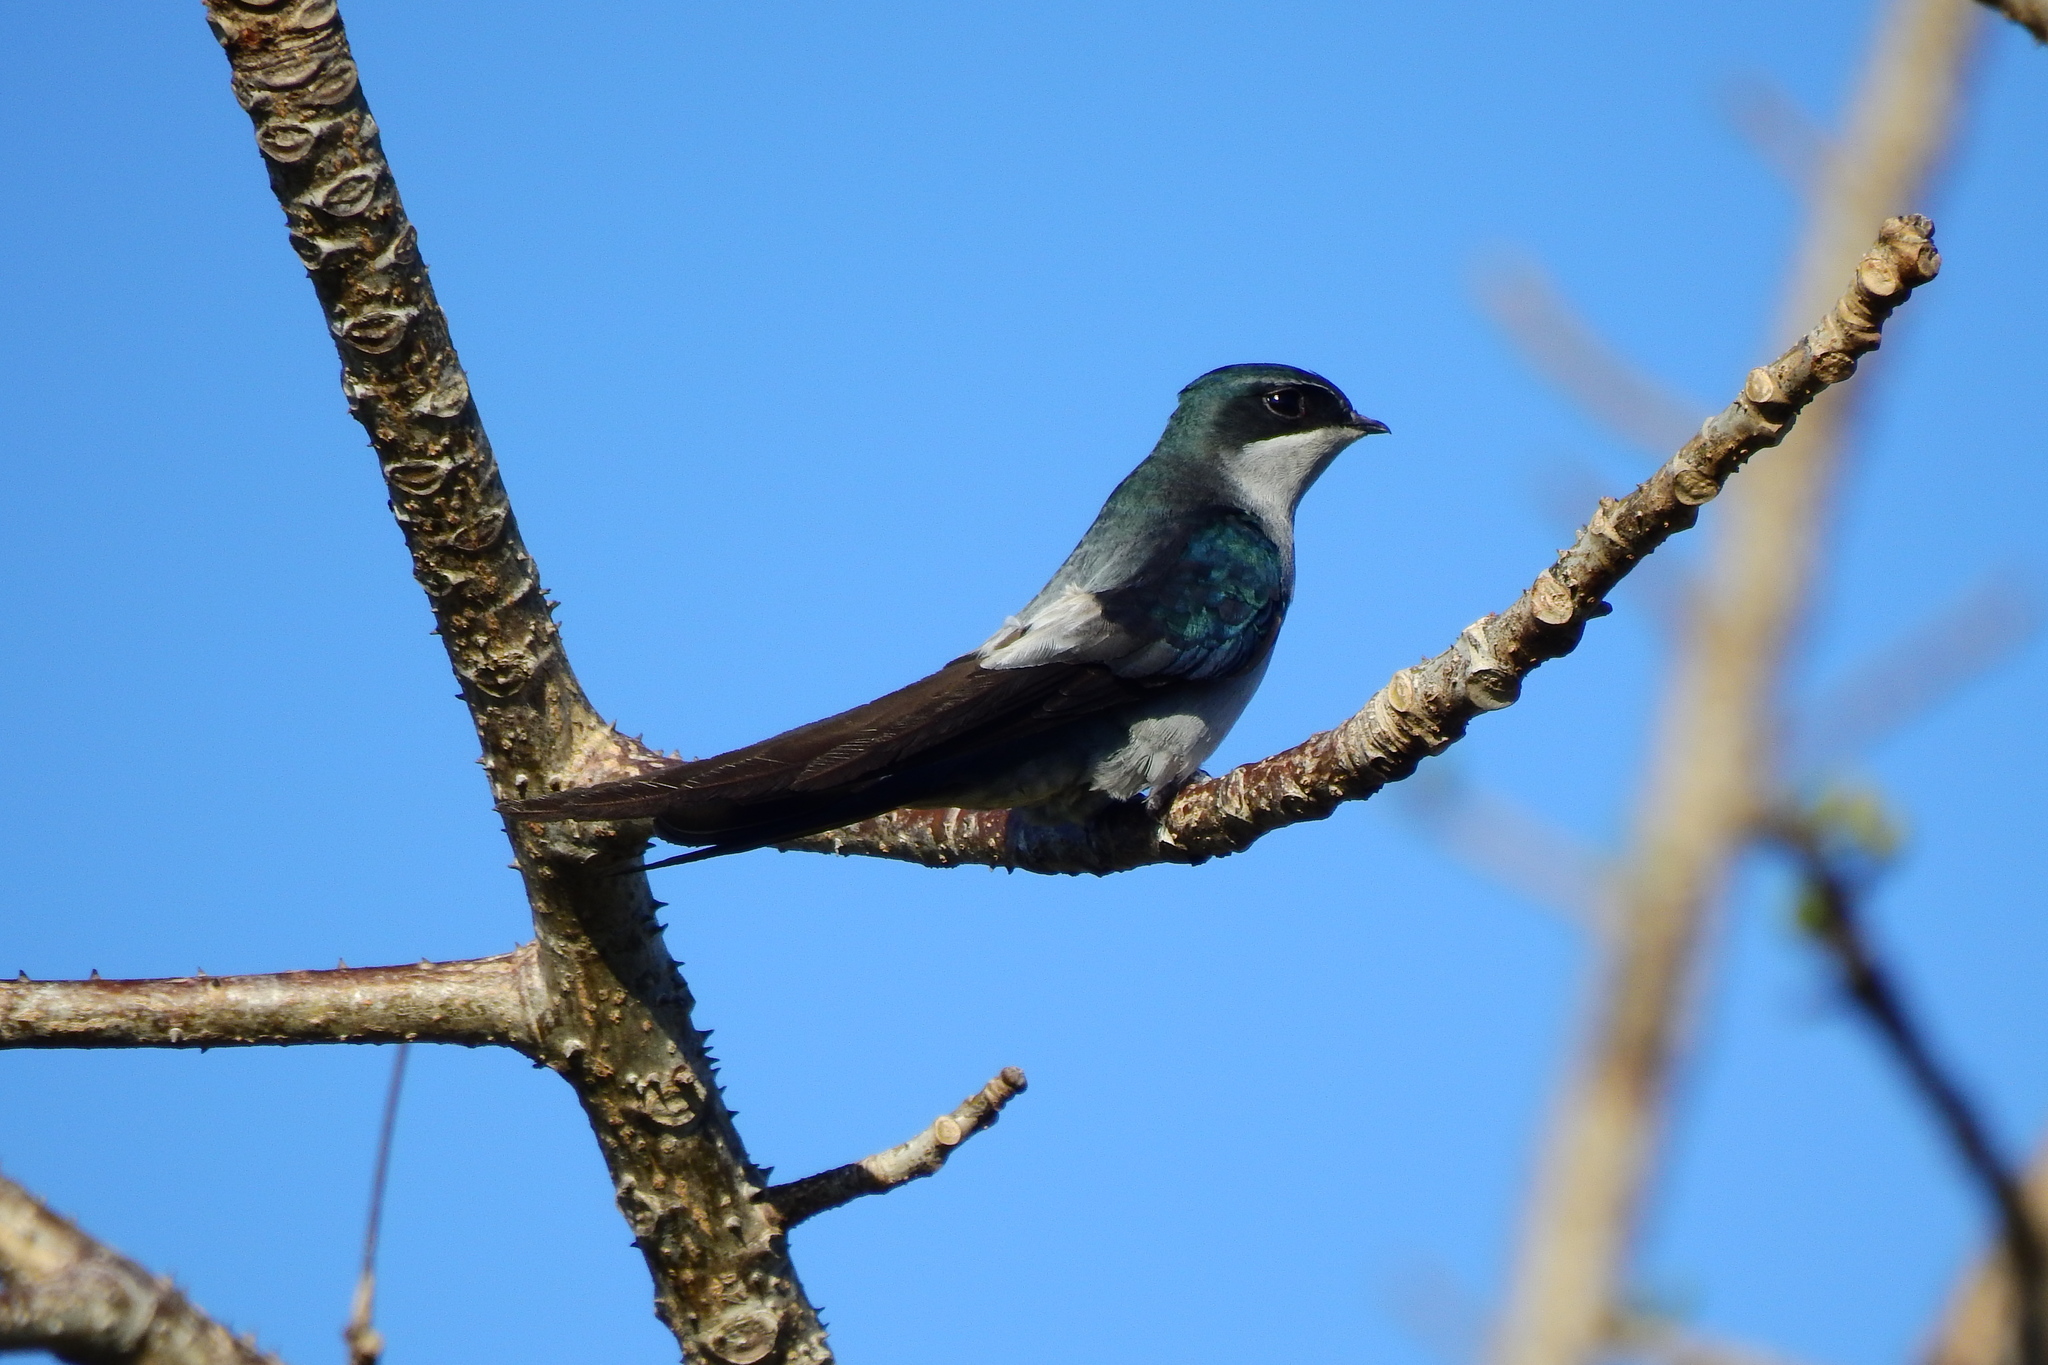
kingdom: Animalia
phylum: Chordata
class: Aves
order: Apodiformes
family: Hemiprocnidae
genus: Hemiprocne
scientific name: Hemiprocne longipennis
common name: Grey-rumped treeswift
